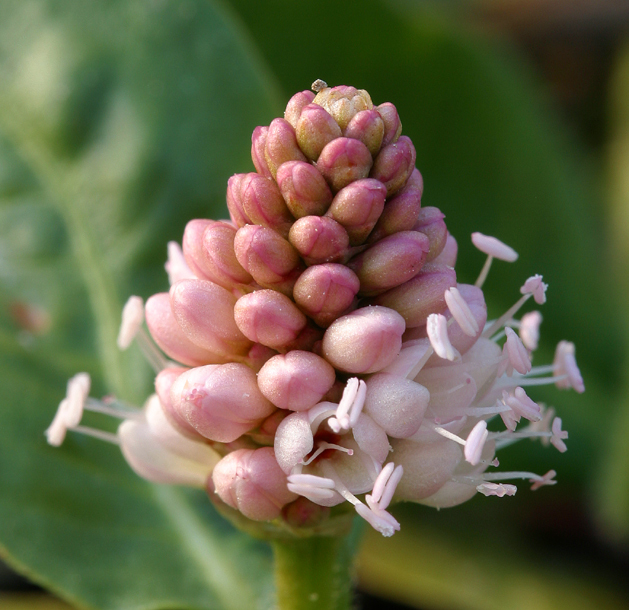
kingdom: Plantae
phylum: Tracheophyta
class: Magnoliopsida
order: Caryophyllales
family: Polygonaceae
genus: Persicaria
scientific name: Persicaria amphibia
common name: Amphibious bistort
